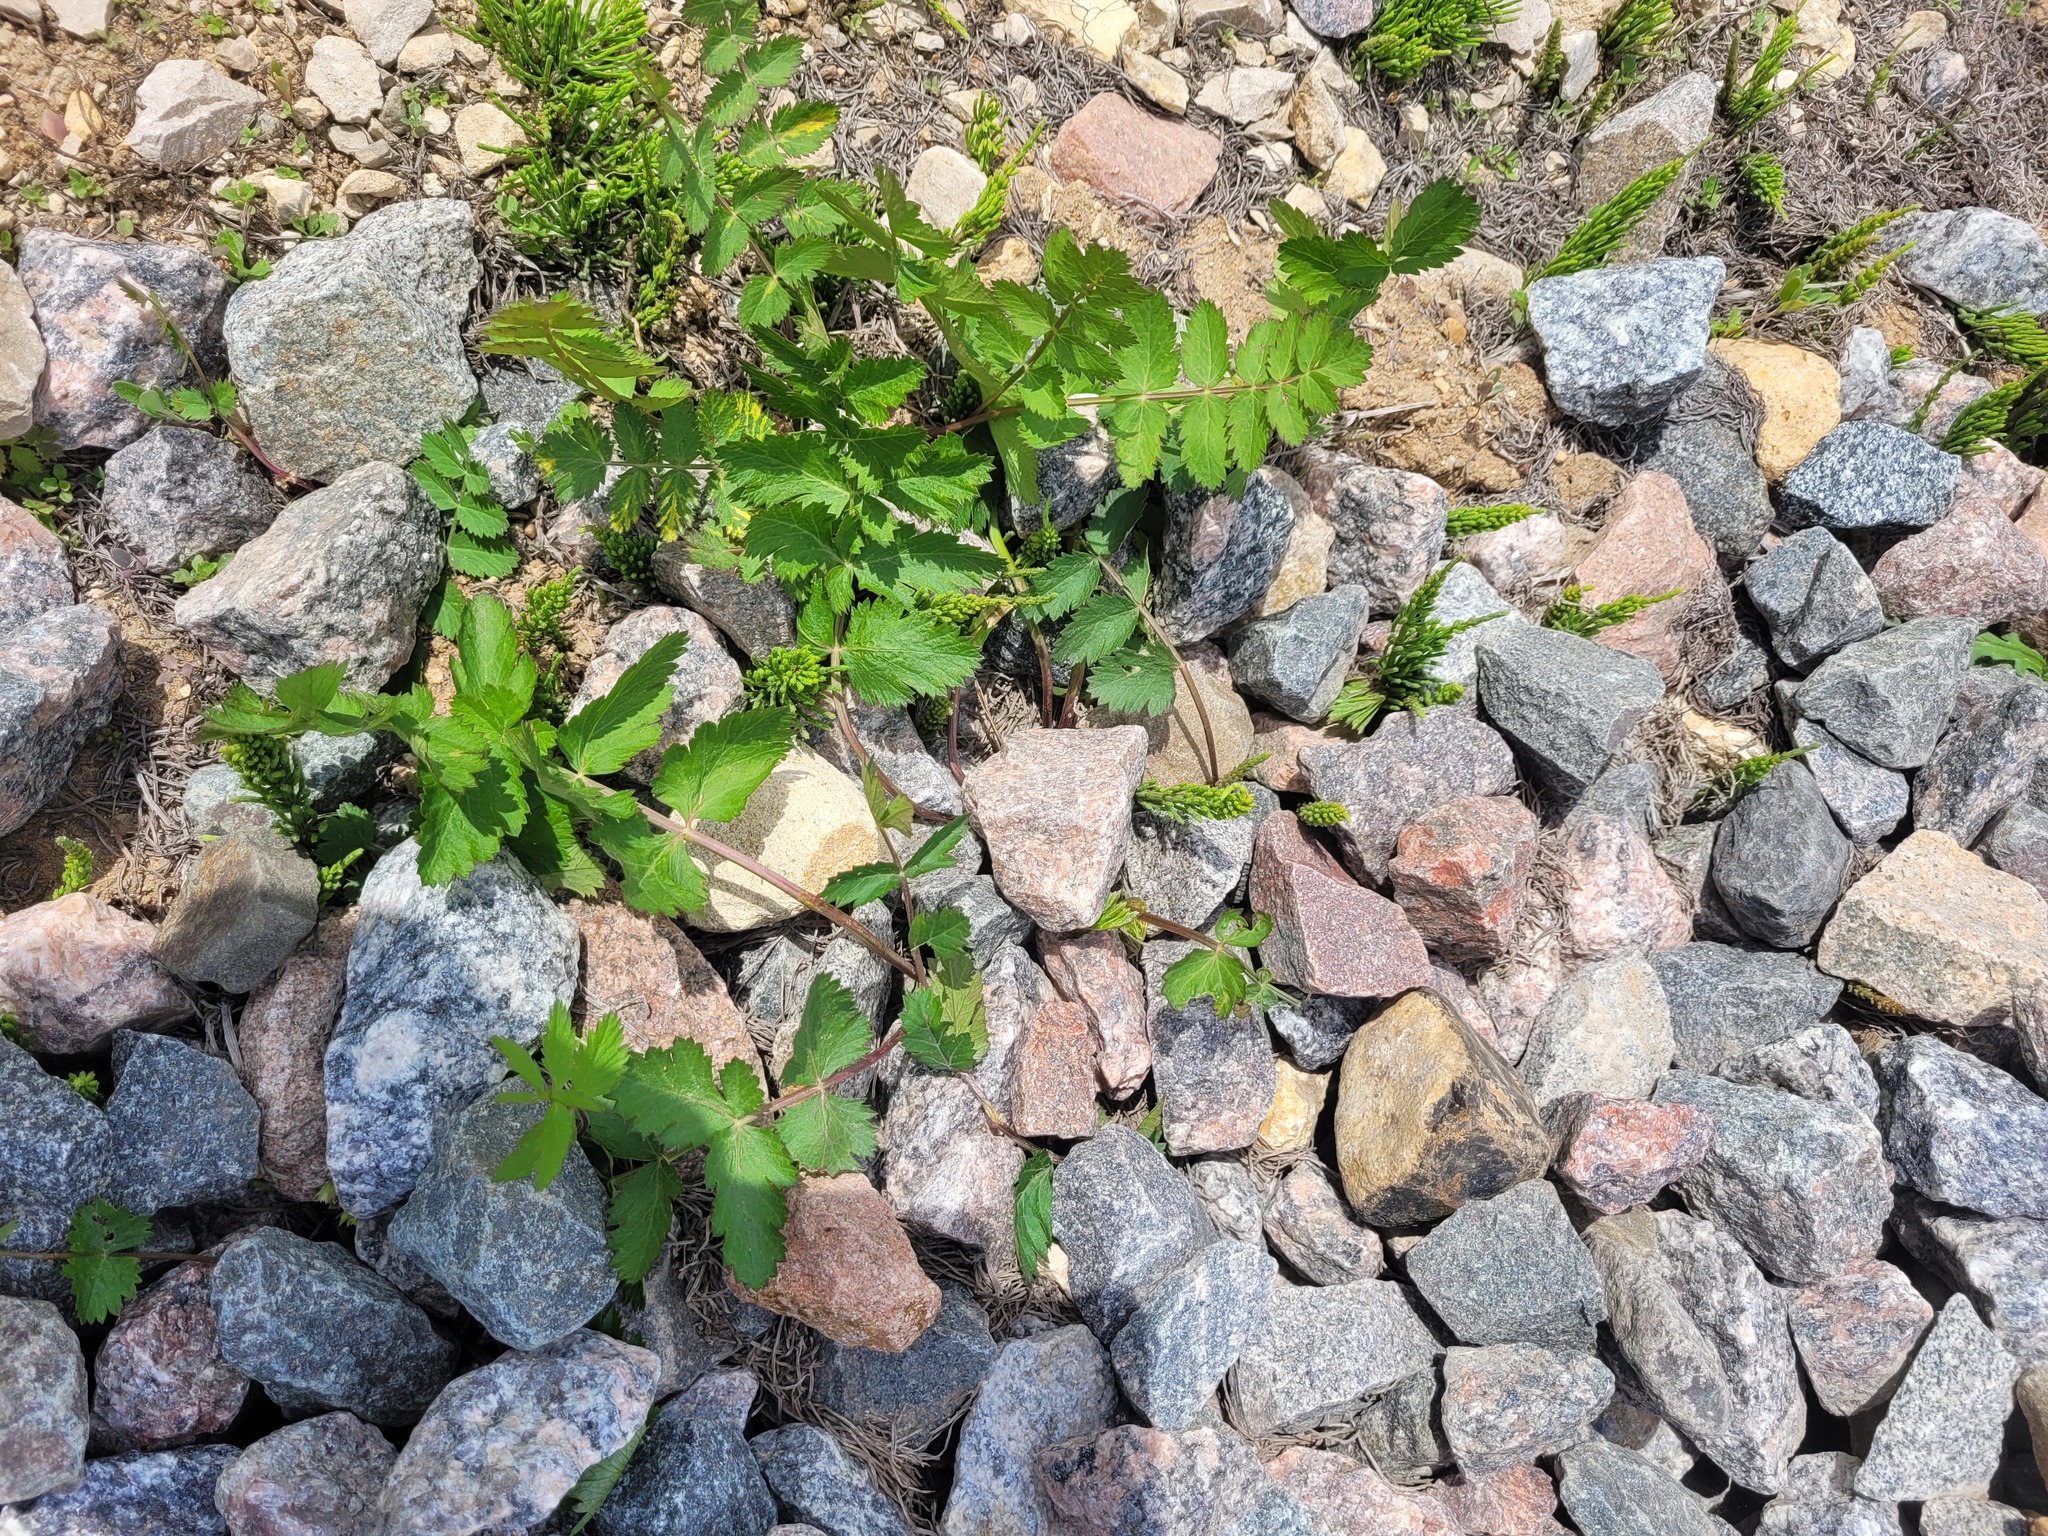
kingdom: Plantae
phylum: Tracheophyta
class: Magnoliopsida
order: Apiales
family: Apiaceae
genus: Pimpinella
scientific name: Pimpinella saxifraga
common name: Burnet-saxifrage
